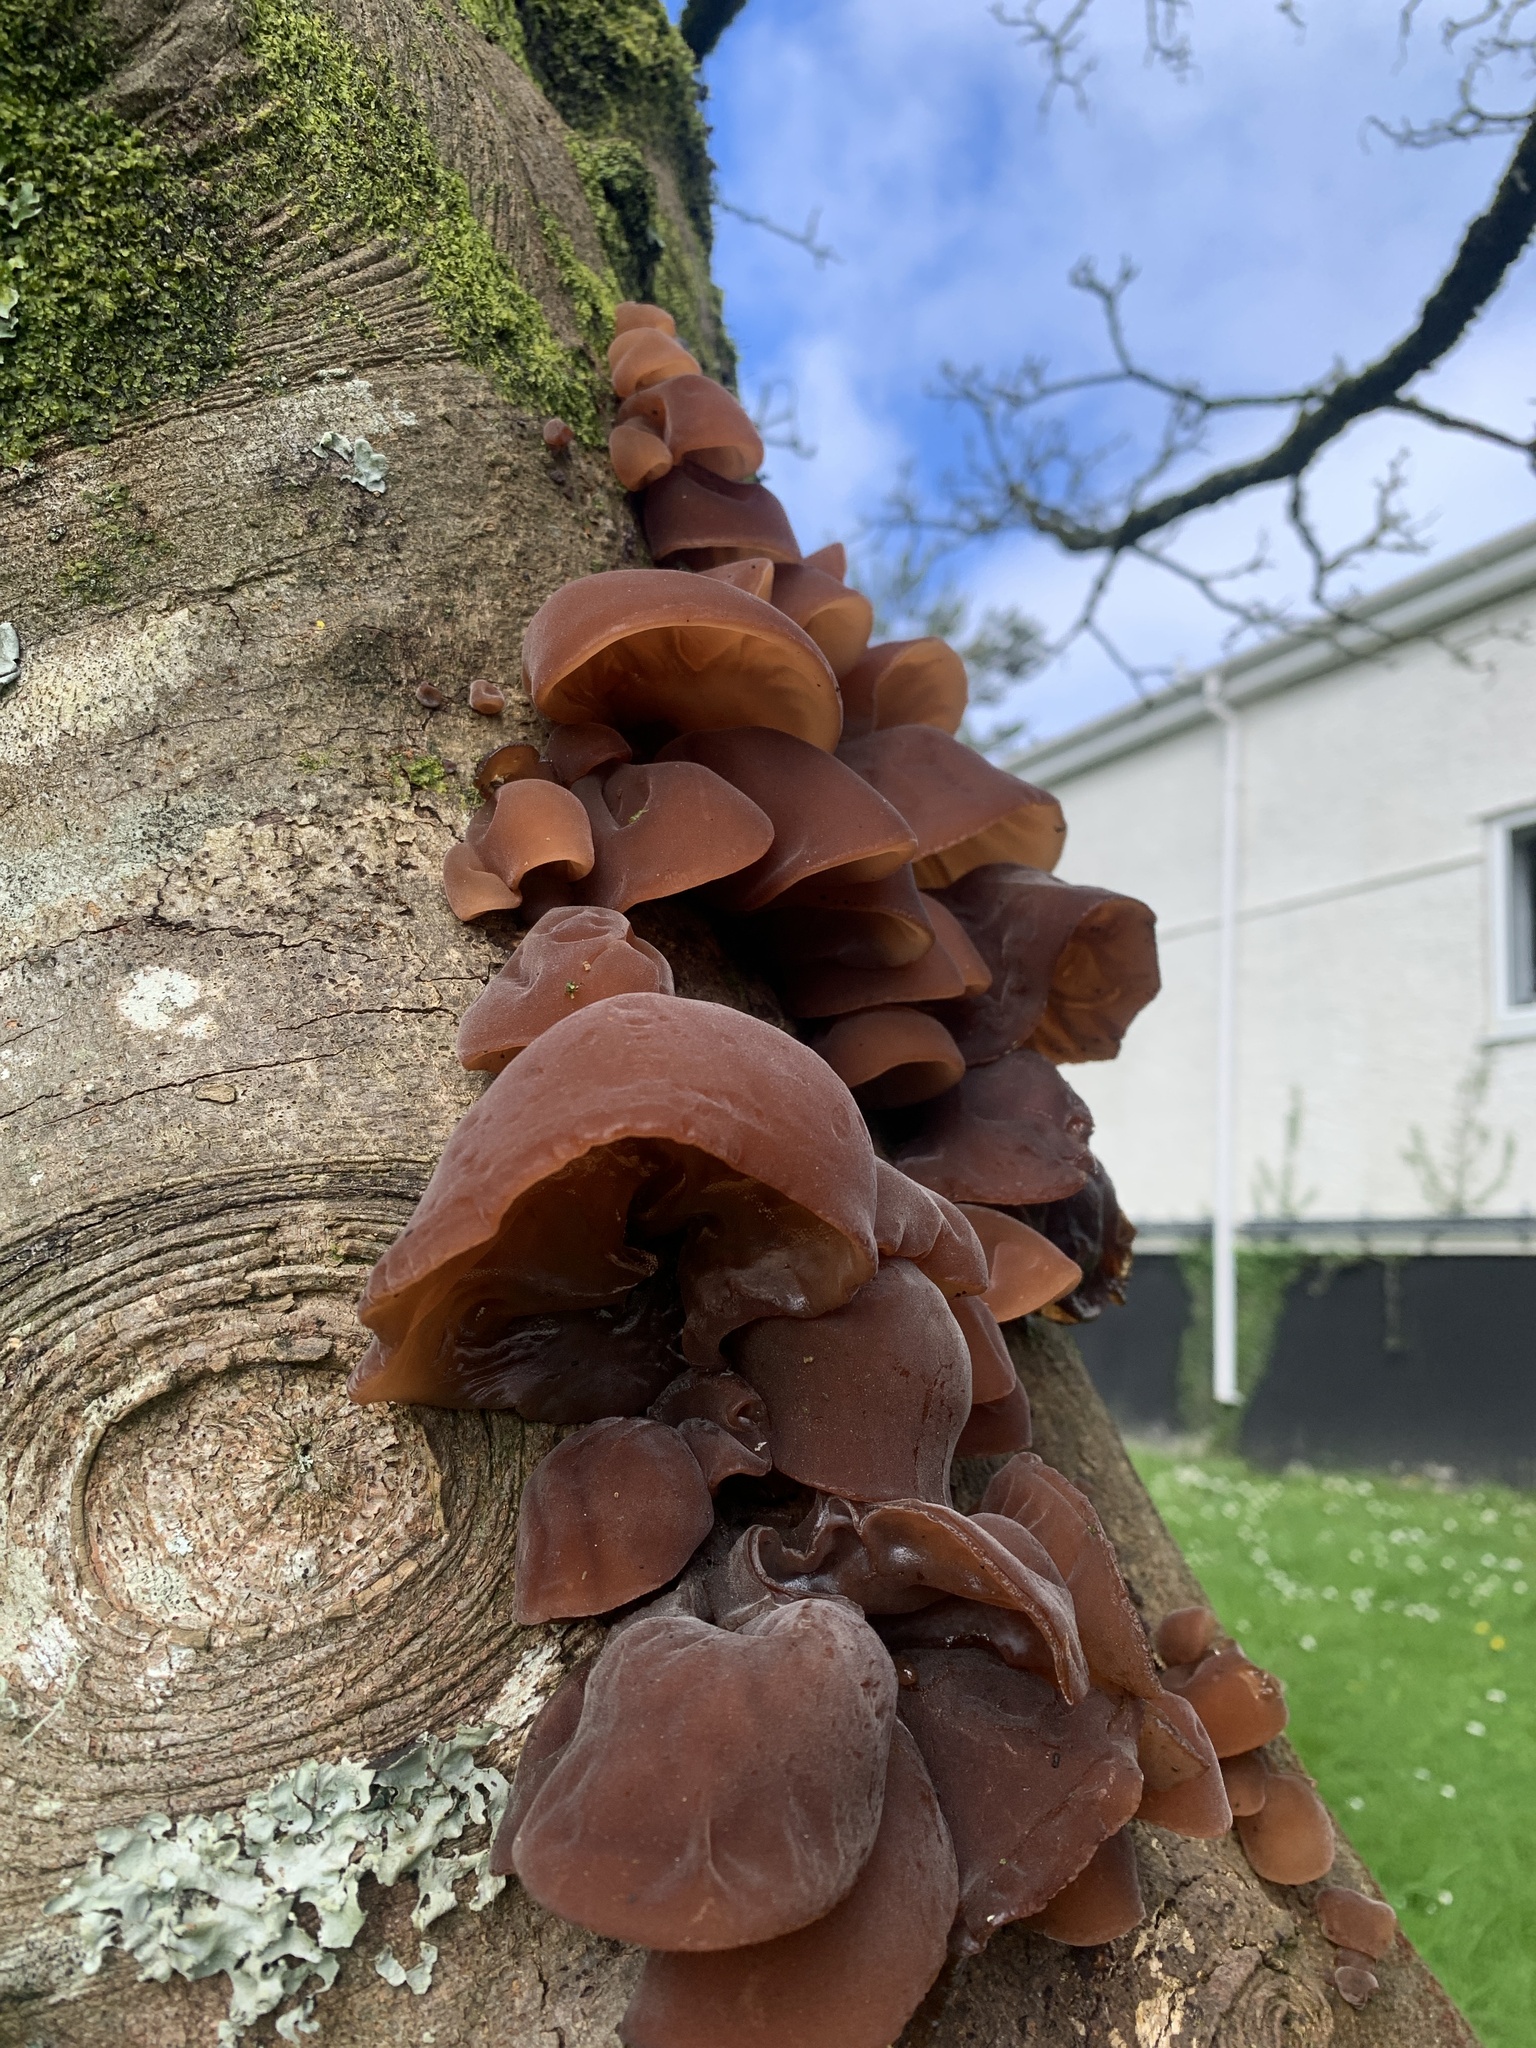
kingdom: Fungi
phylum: Basidiomycota
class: Agaricomycetes
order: Auriculariales
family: Auriculariaceae
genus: Auricularia
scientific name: Auricularia auricula-judae
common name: Jelly ear
